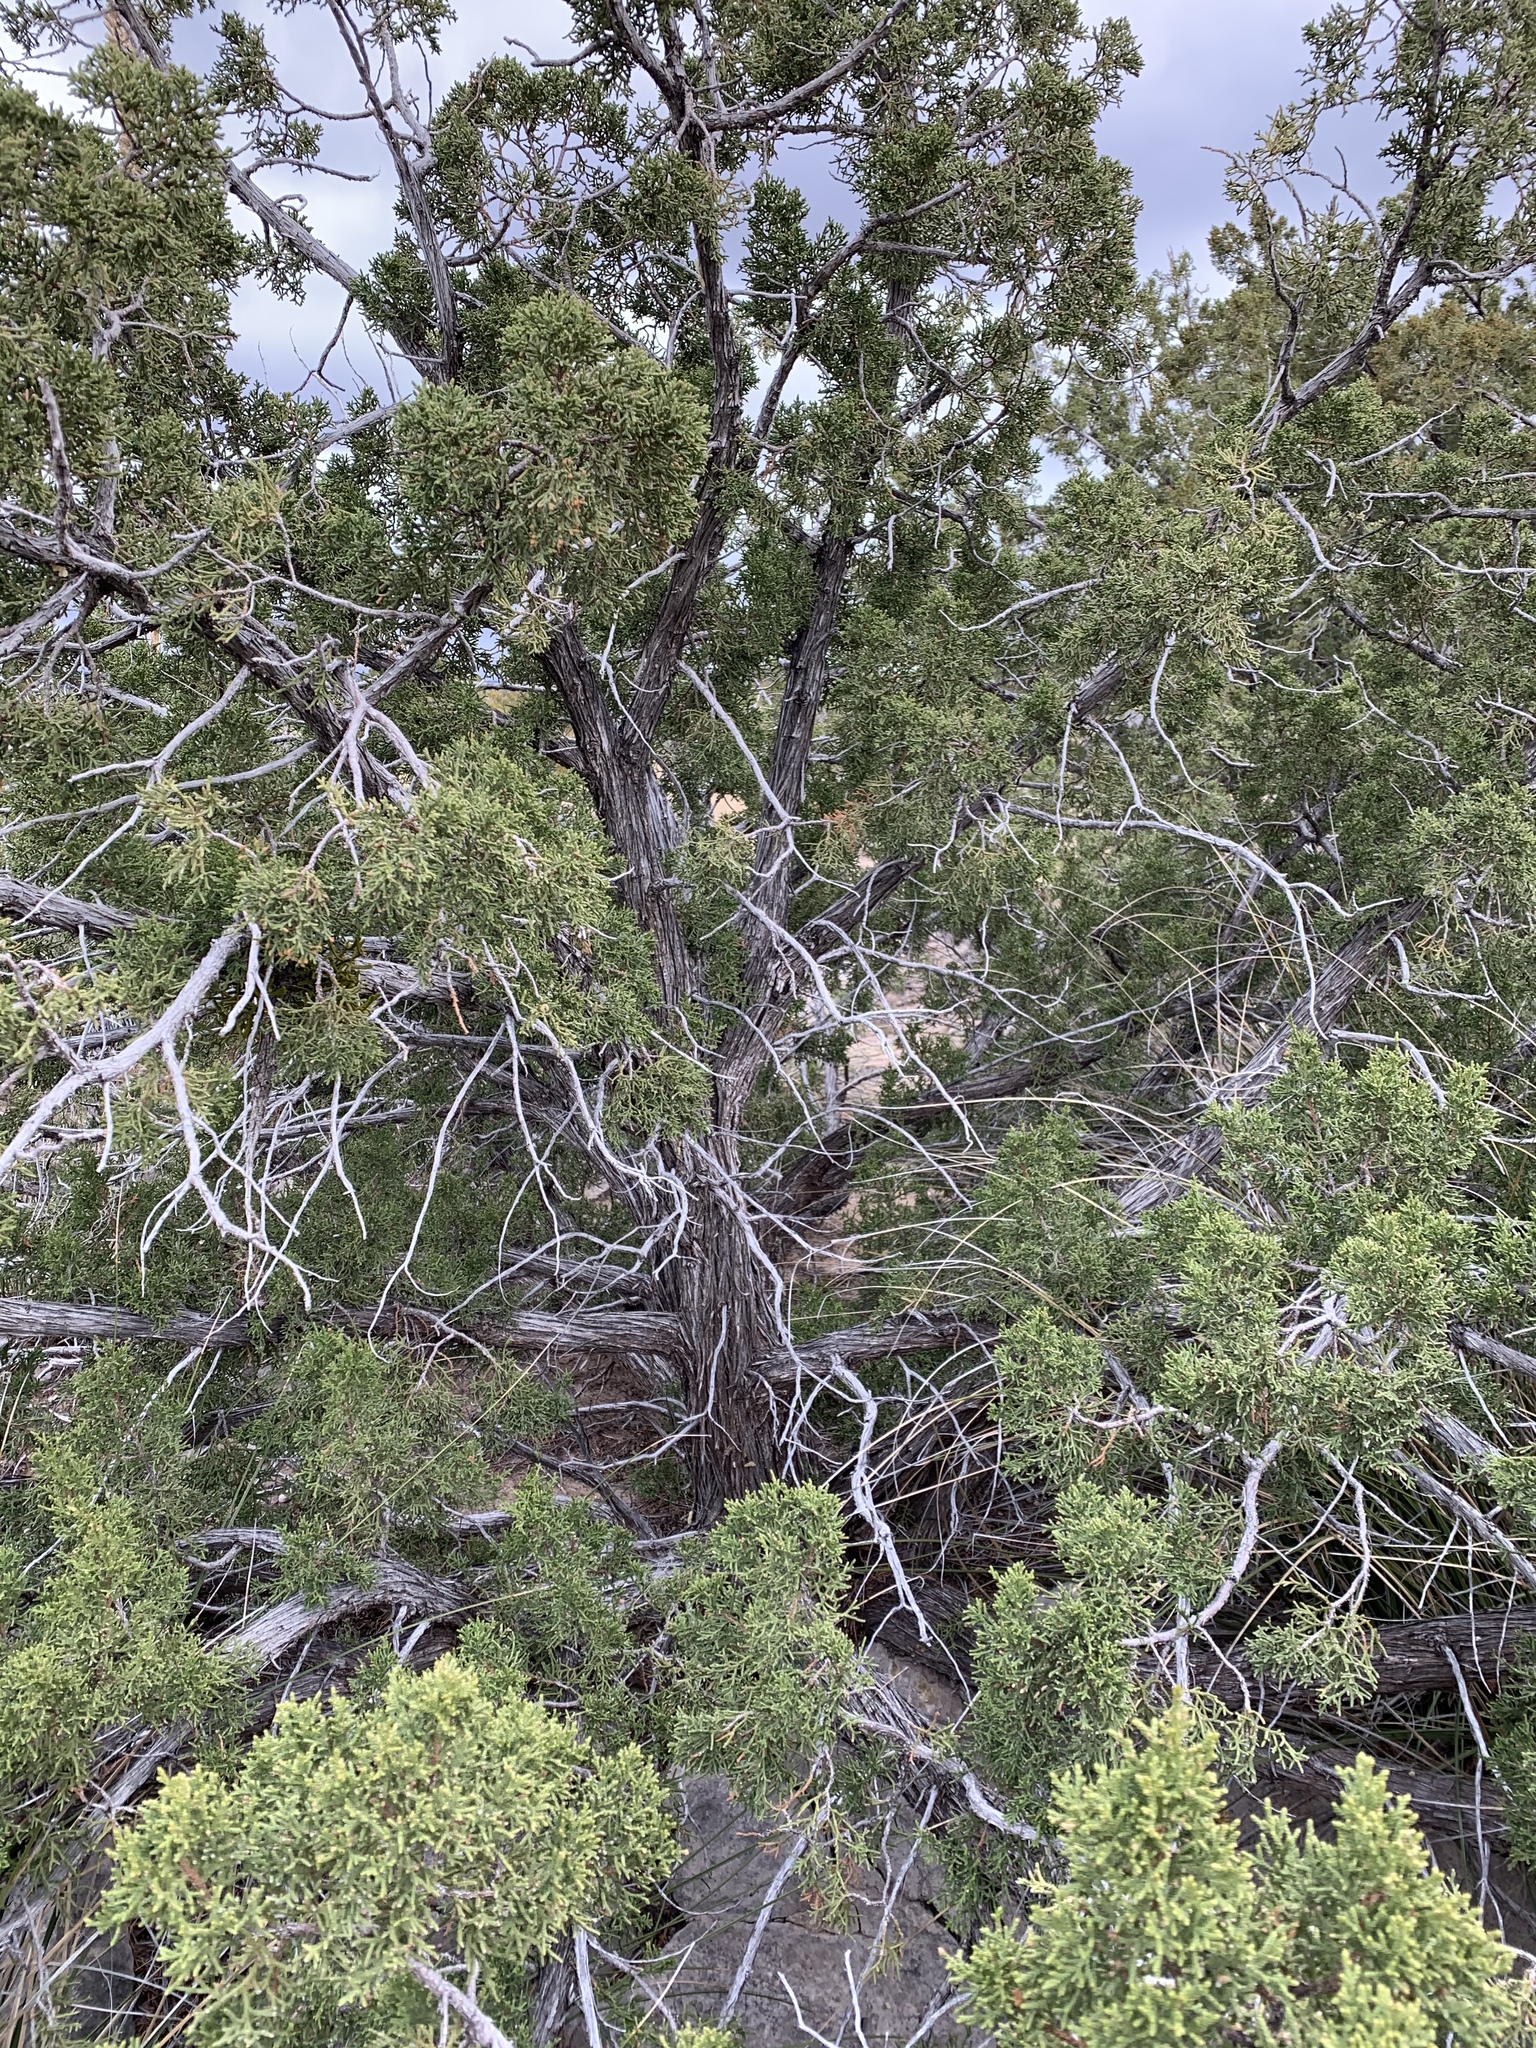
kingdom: Plantae
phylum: Tracheophyta
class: Pinopsida
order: Pinales
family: Cupressaceae
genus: Juniperus
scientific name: Juniperus monosperma
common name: One-seed juniper
